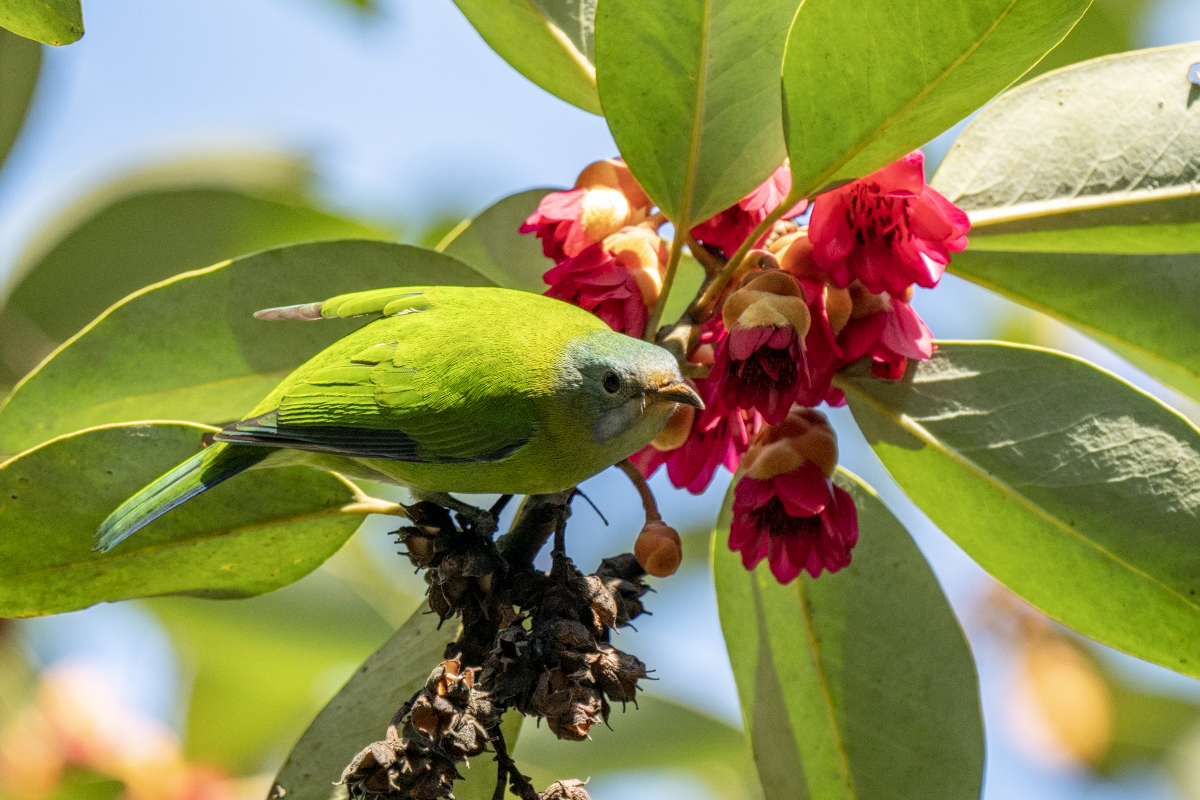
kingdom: Animalia
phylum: Chordata
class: Aves
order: Passeriformes
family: Chloropseidae
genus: Chloropsis
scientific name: Chloropsis hardwickii
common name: Orange-bellied leafbird
